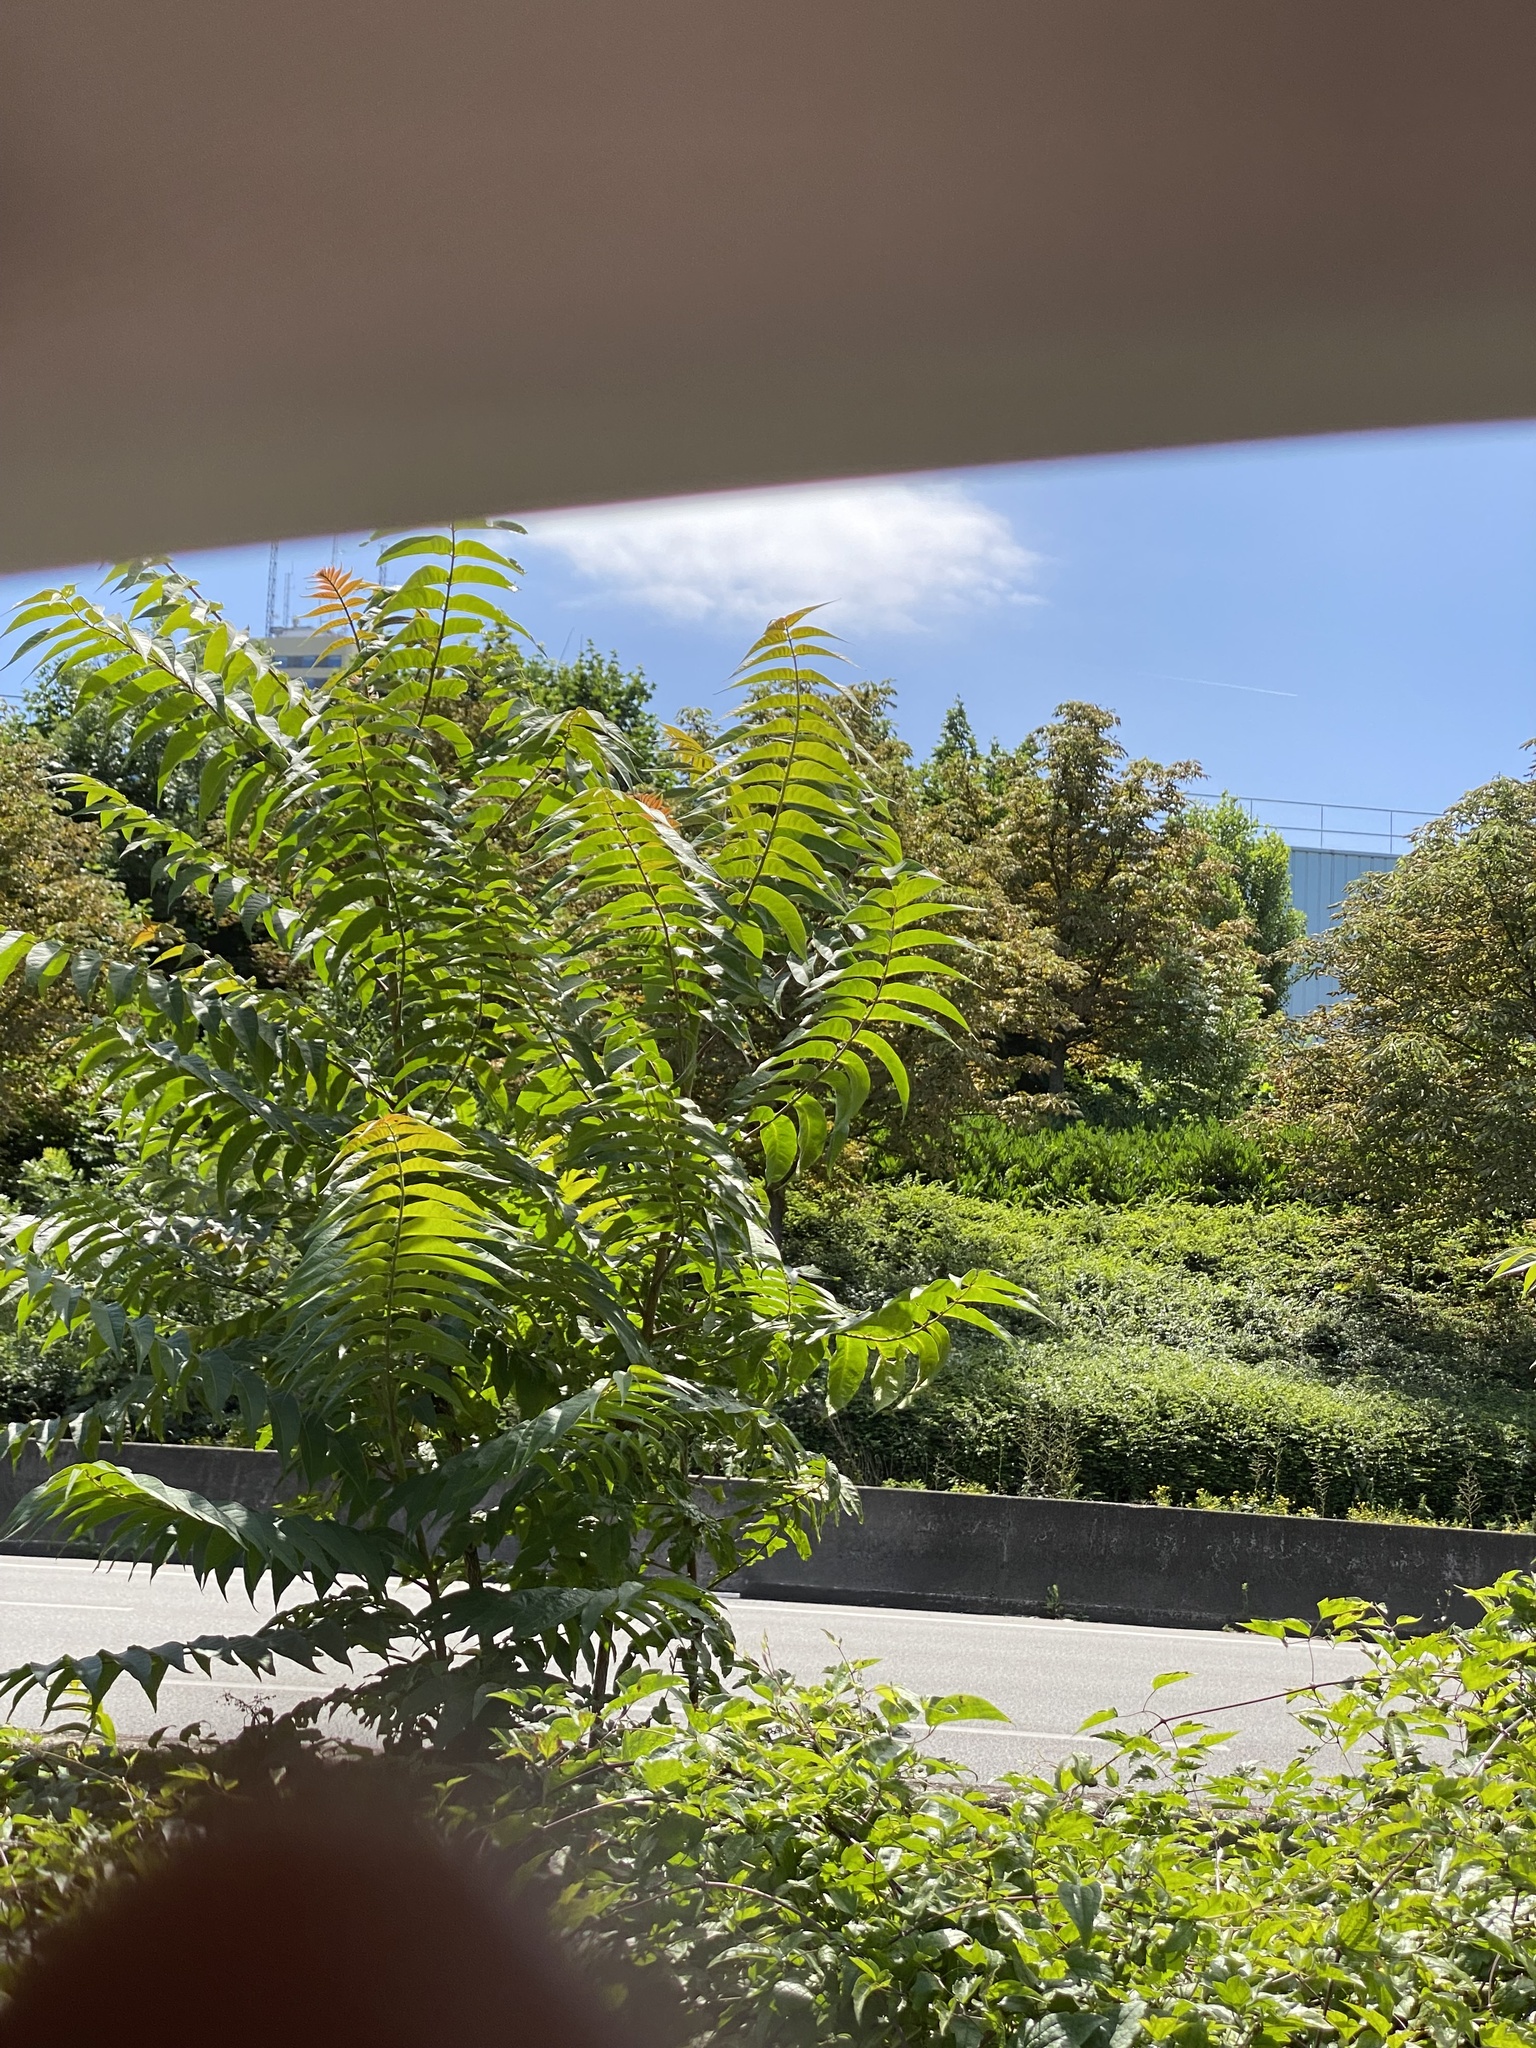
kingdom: Plantae
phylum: Tracheophyta
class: Magnoliopsida
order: Sapindales
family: Simaroubaceae
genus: Ailanthus
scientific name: Ailanthus altissima
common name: Tree-of-heaven
